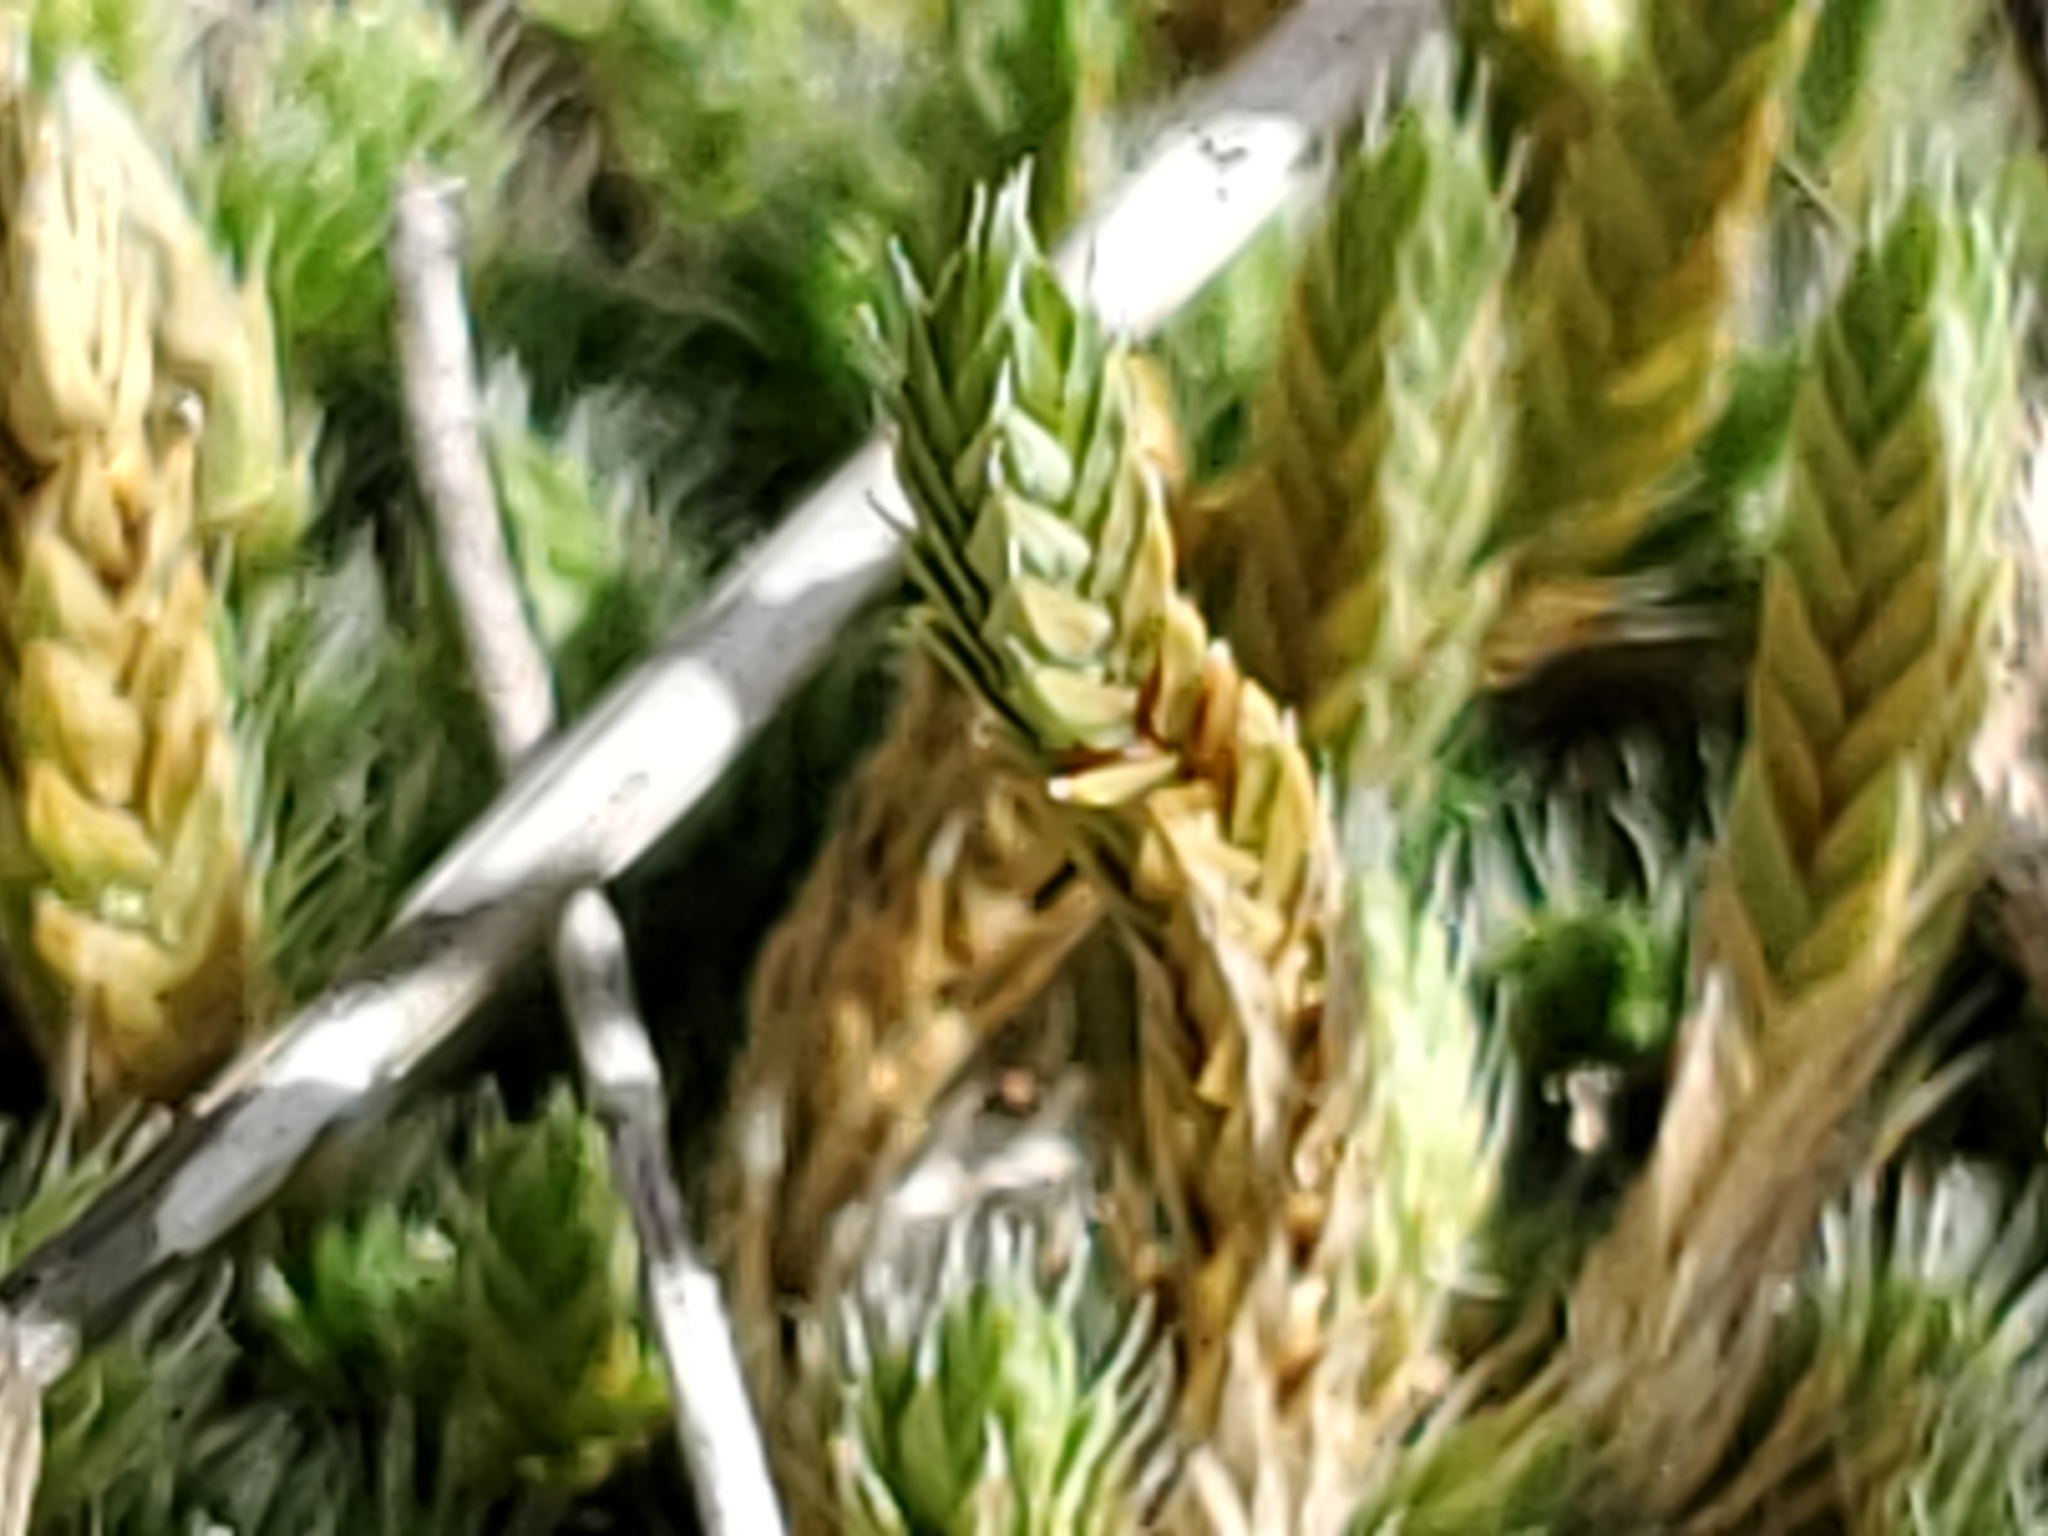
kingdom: Plantae
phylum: Tracheophyta
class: Lycopodiopsida
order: Selaginellales
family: Selaginellaceae
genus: Selaginella
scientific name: Selaginella densa
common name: Mountain spike-moss
